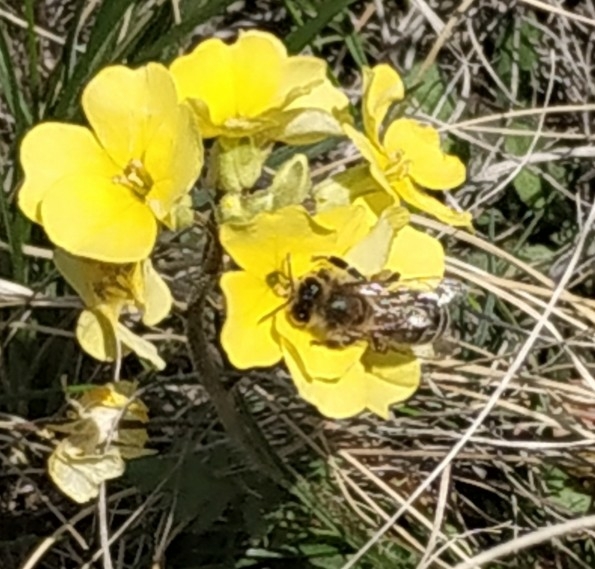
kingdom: Animalia
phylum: Arthropoda
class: Insecta
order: Hymenoptera
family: Apidae
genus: Apis
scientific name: Apis mellifera
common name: Honey bee
